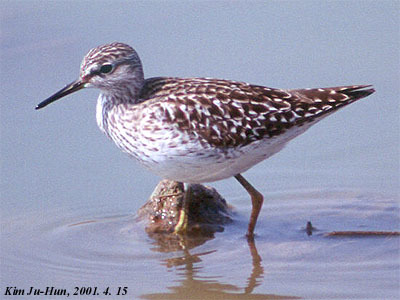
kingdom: Animalia
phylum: Chordata
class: Aves
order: Charadriiformes
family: Scolopacidae
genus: Tringa
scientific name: Tringa glareola
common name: Wood sandpiper
